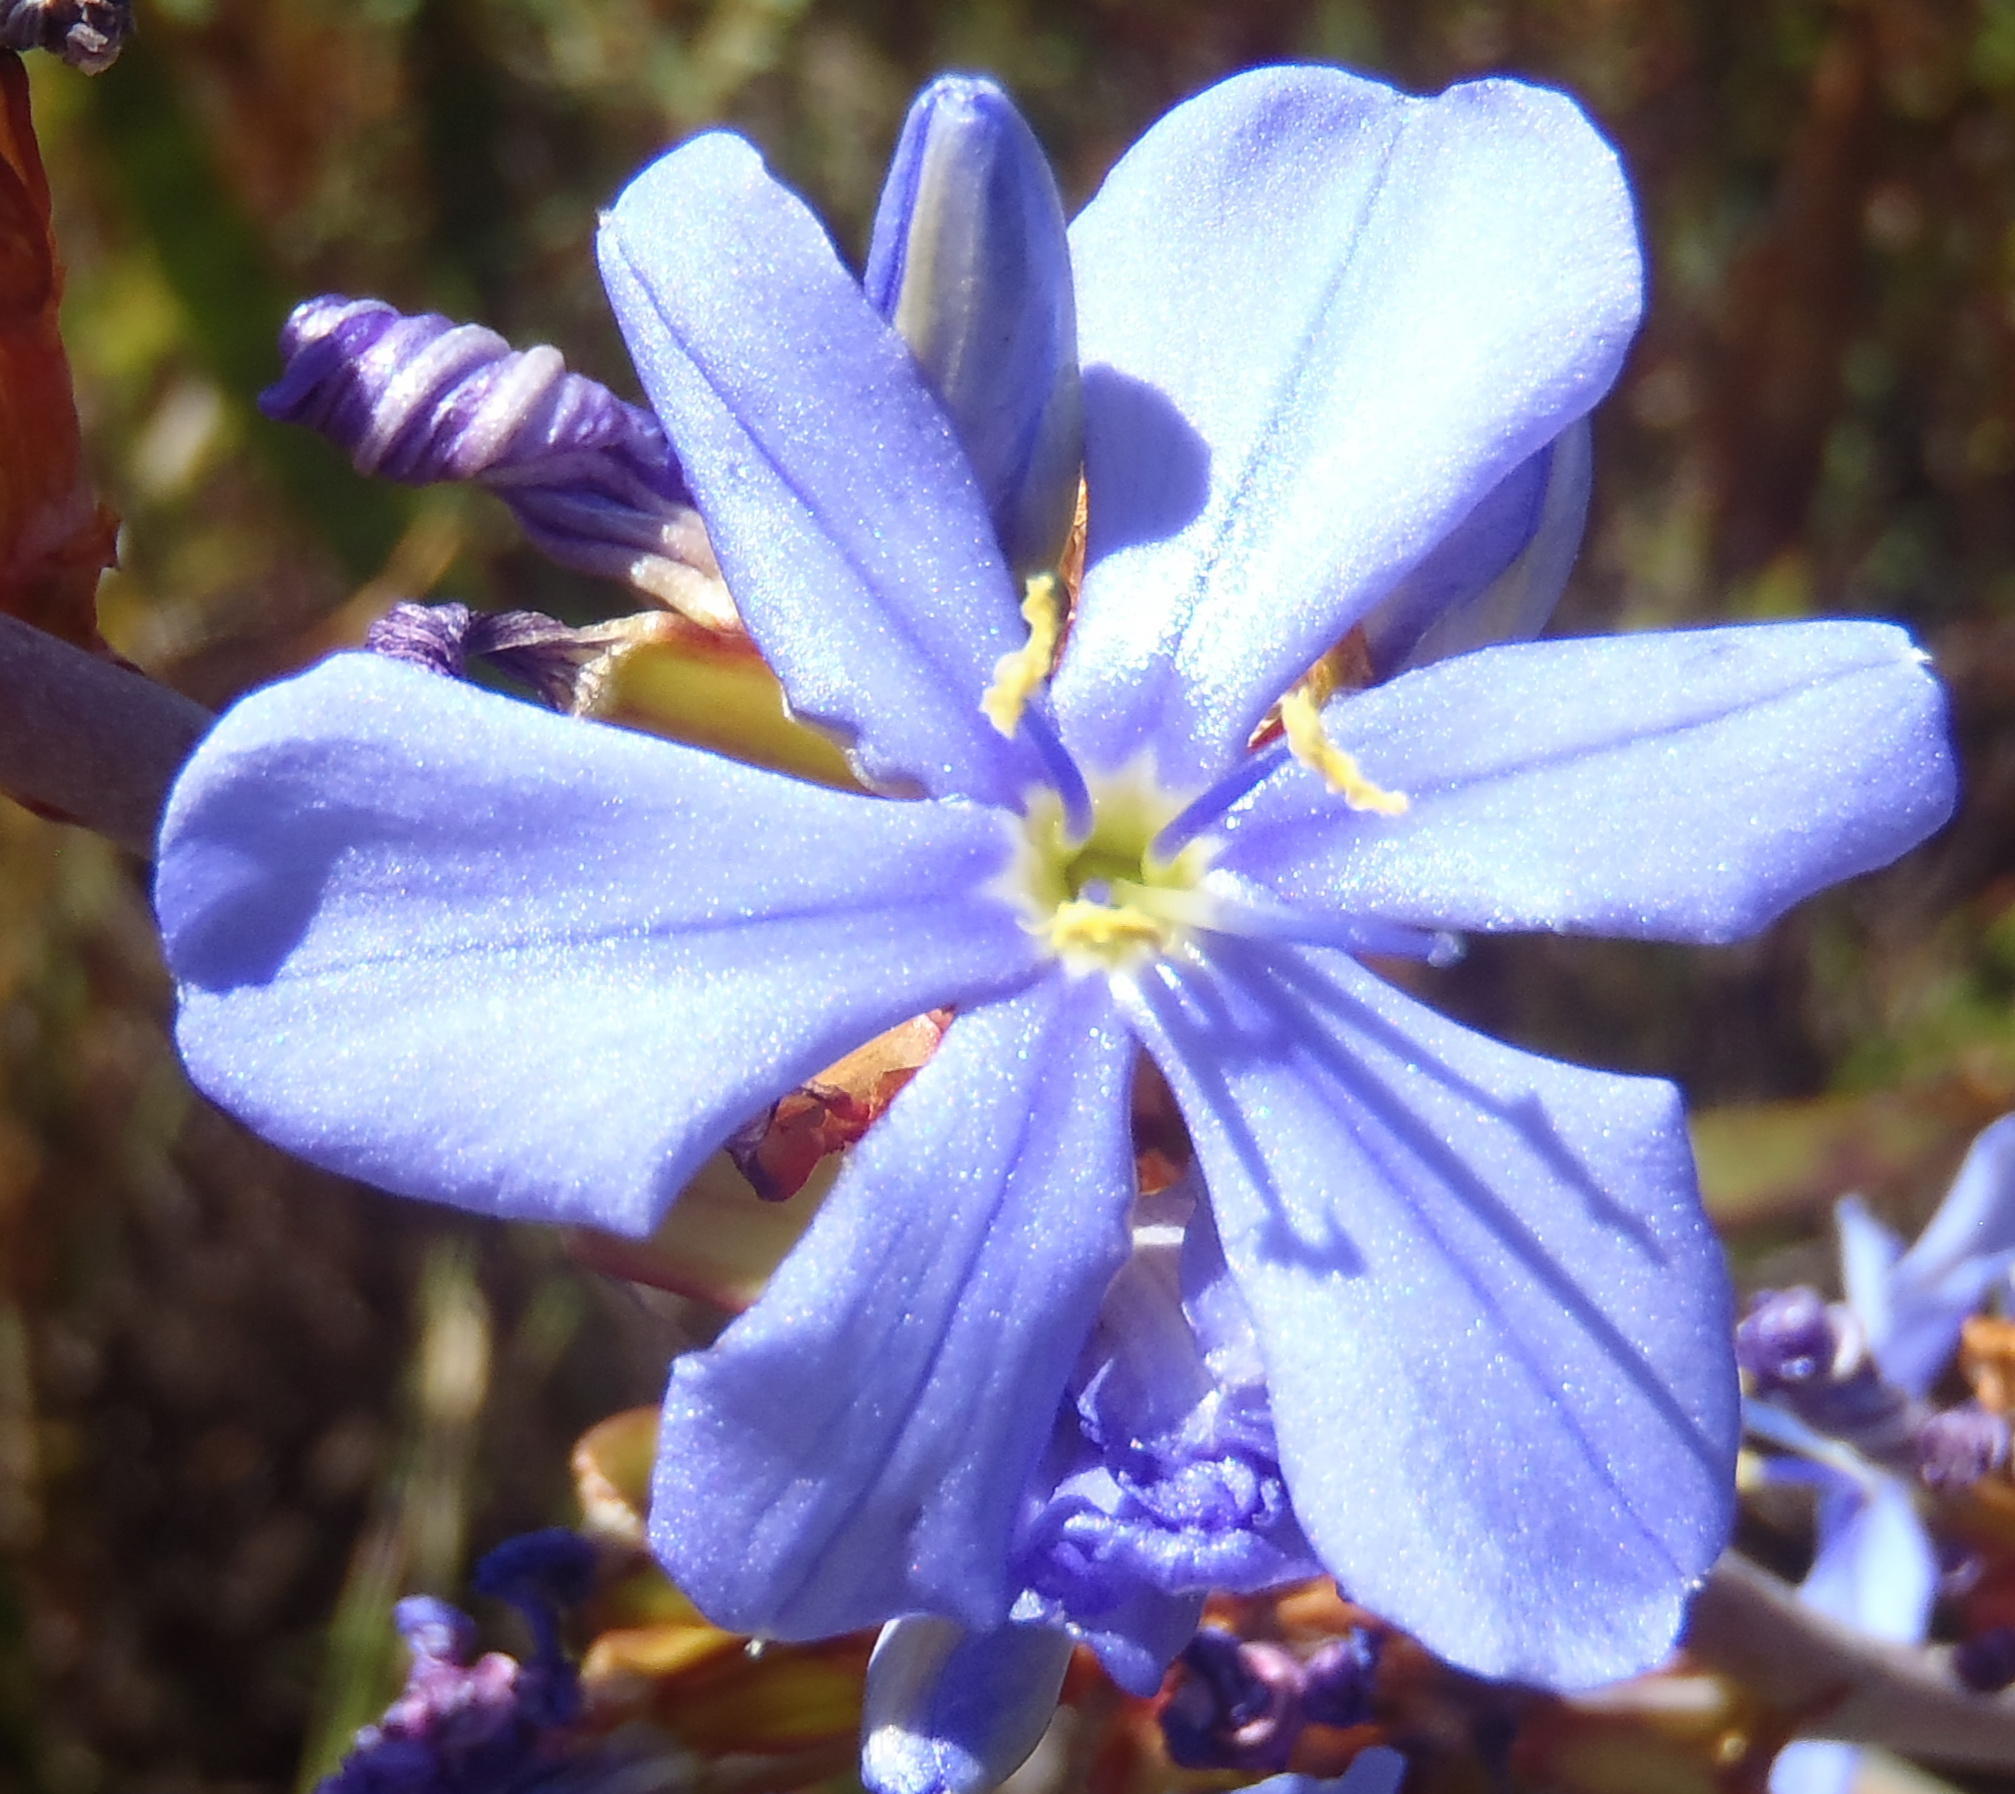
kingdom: Plantae
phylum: Tracheophyta
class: Liliopsida
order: Asparagales
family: Iridaceae
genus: Aristea
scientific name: Aristea bakeri
